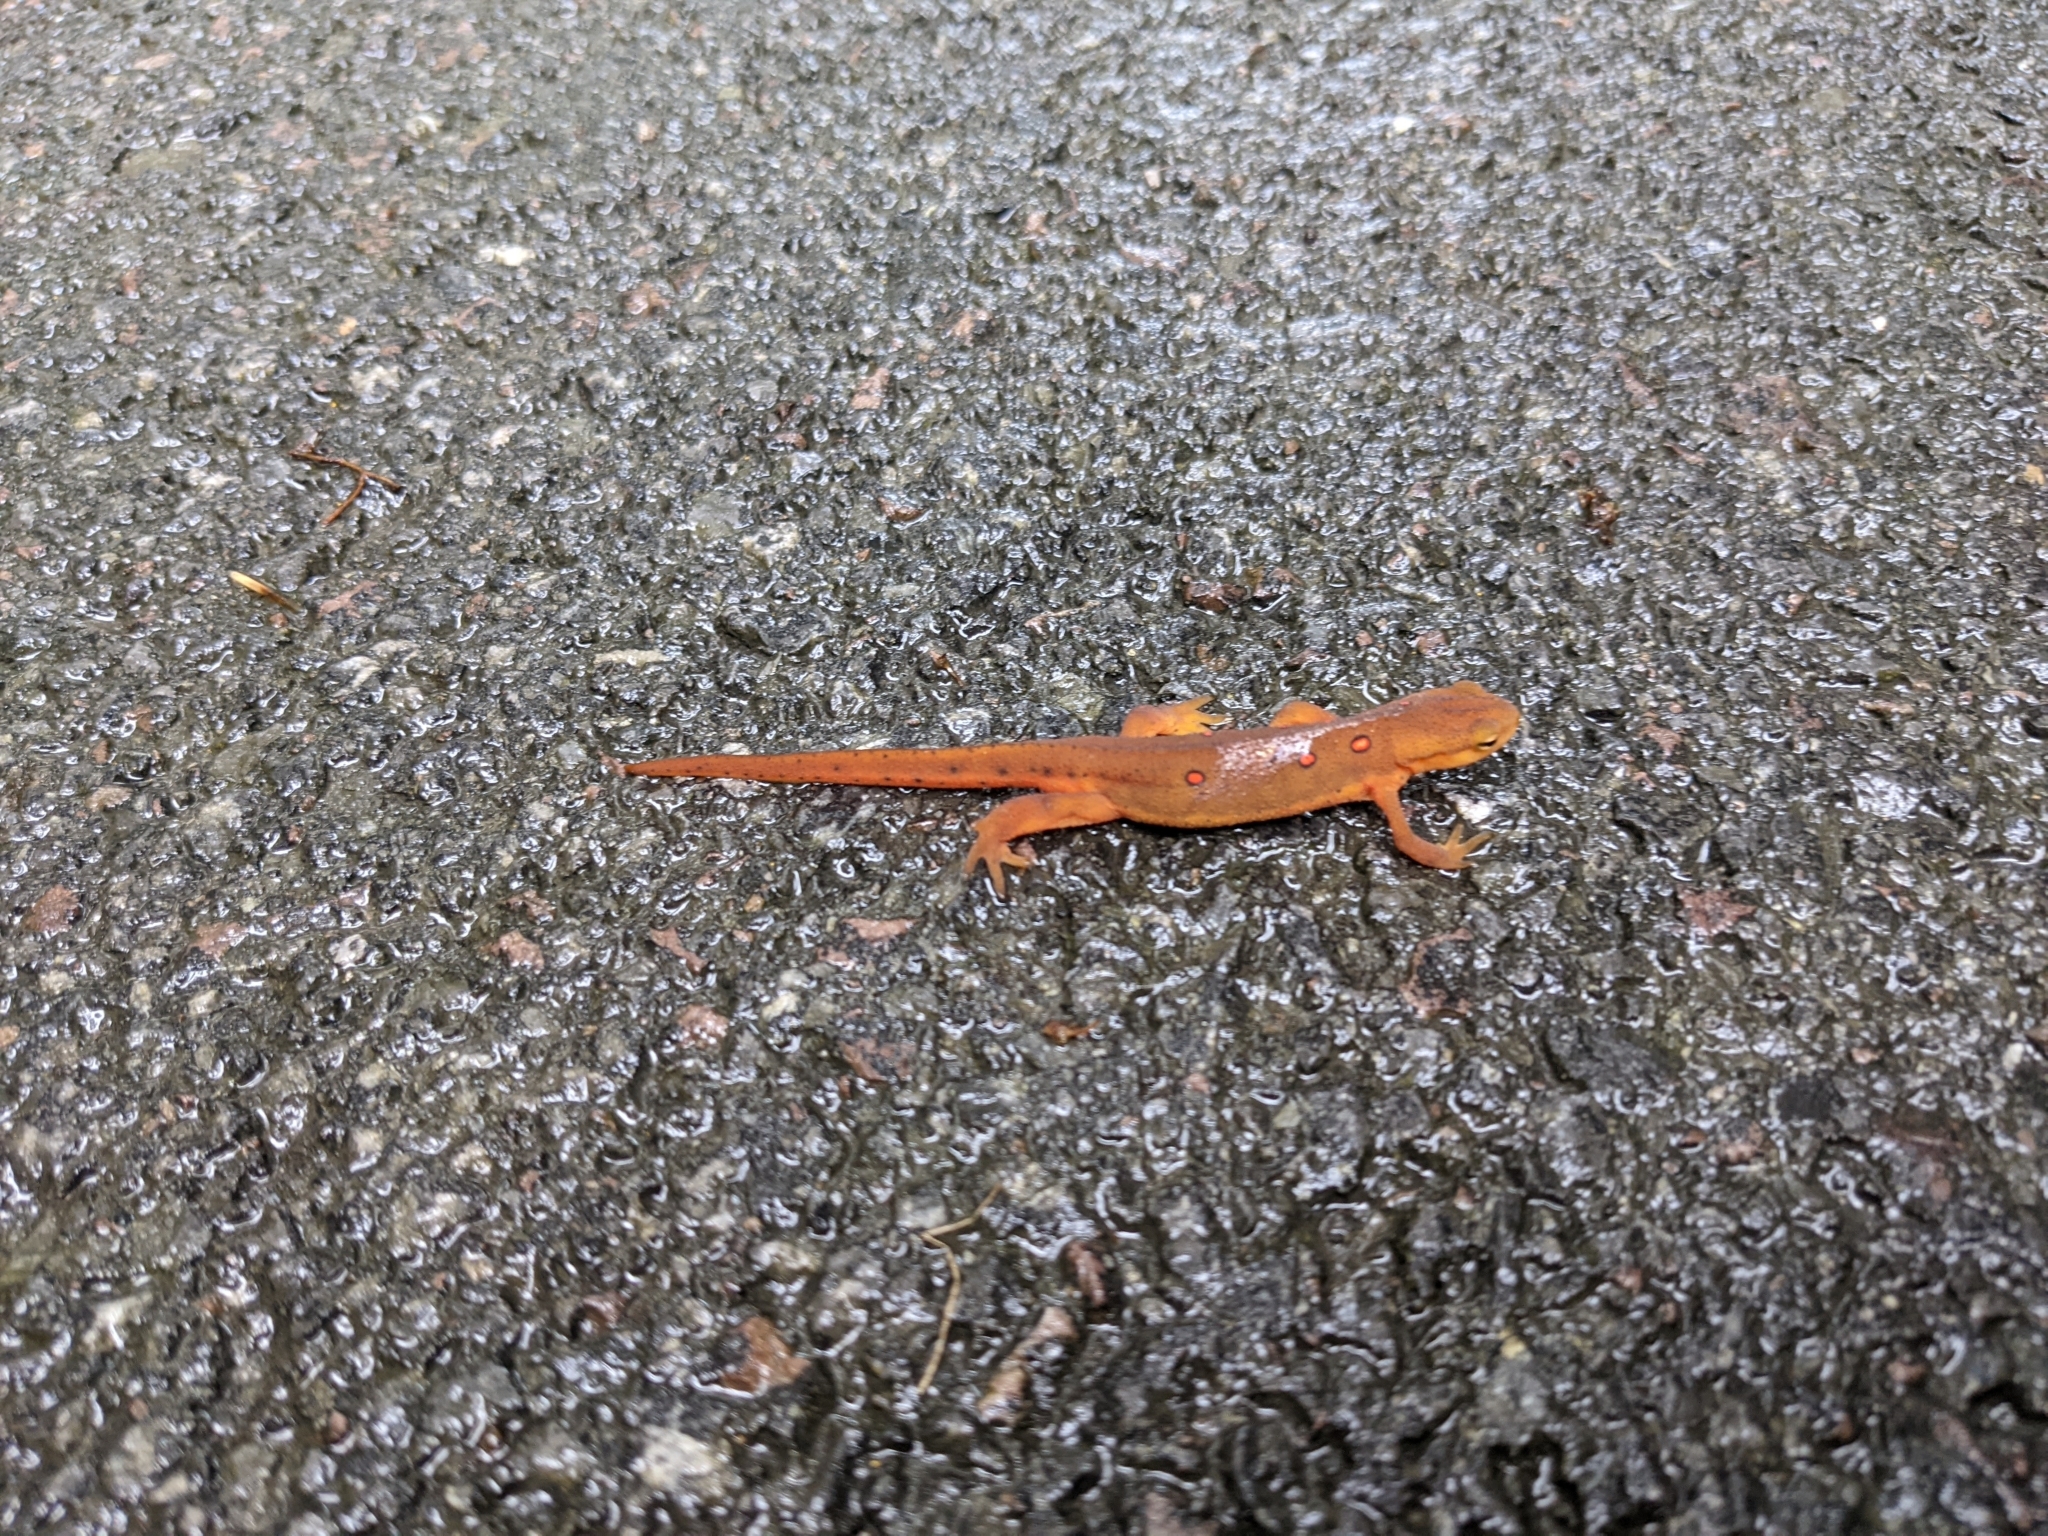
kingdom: Animalia
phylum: Chordata
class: Amphibia
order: Caudata
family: Salamandridae
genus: Notophthalmus
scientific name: Notophthalmus viridescens
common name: Eastern newt
